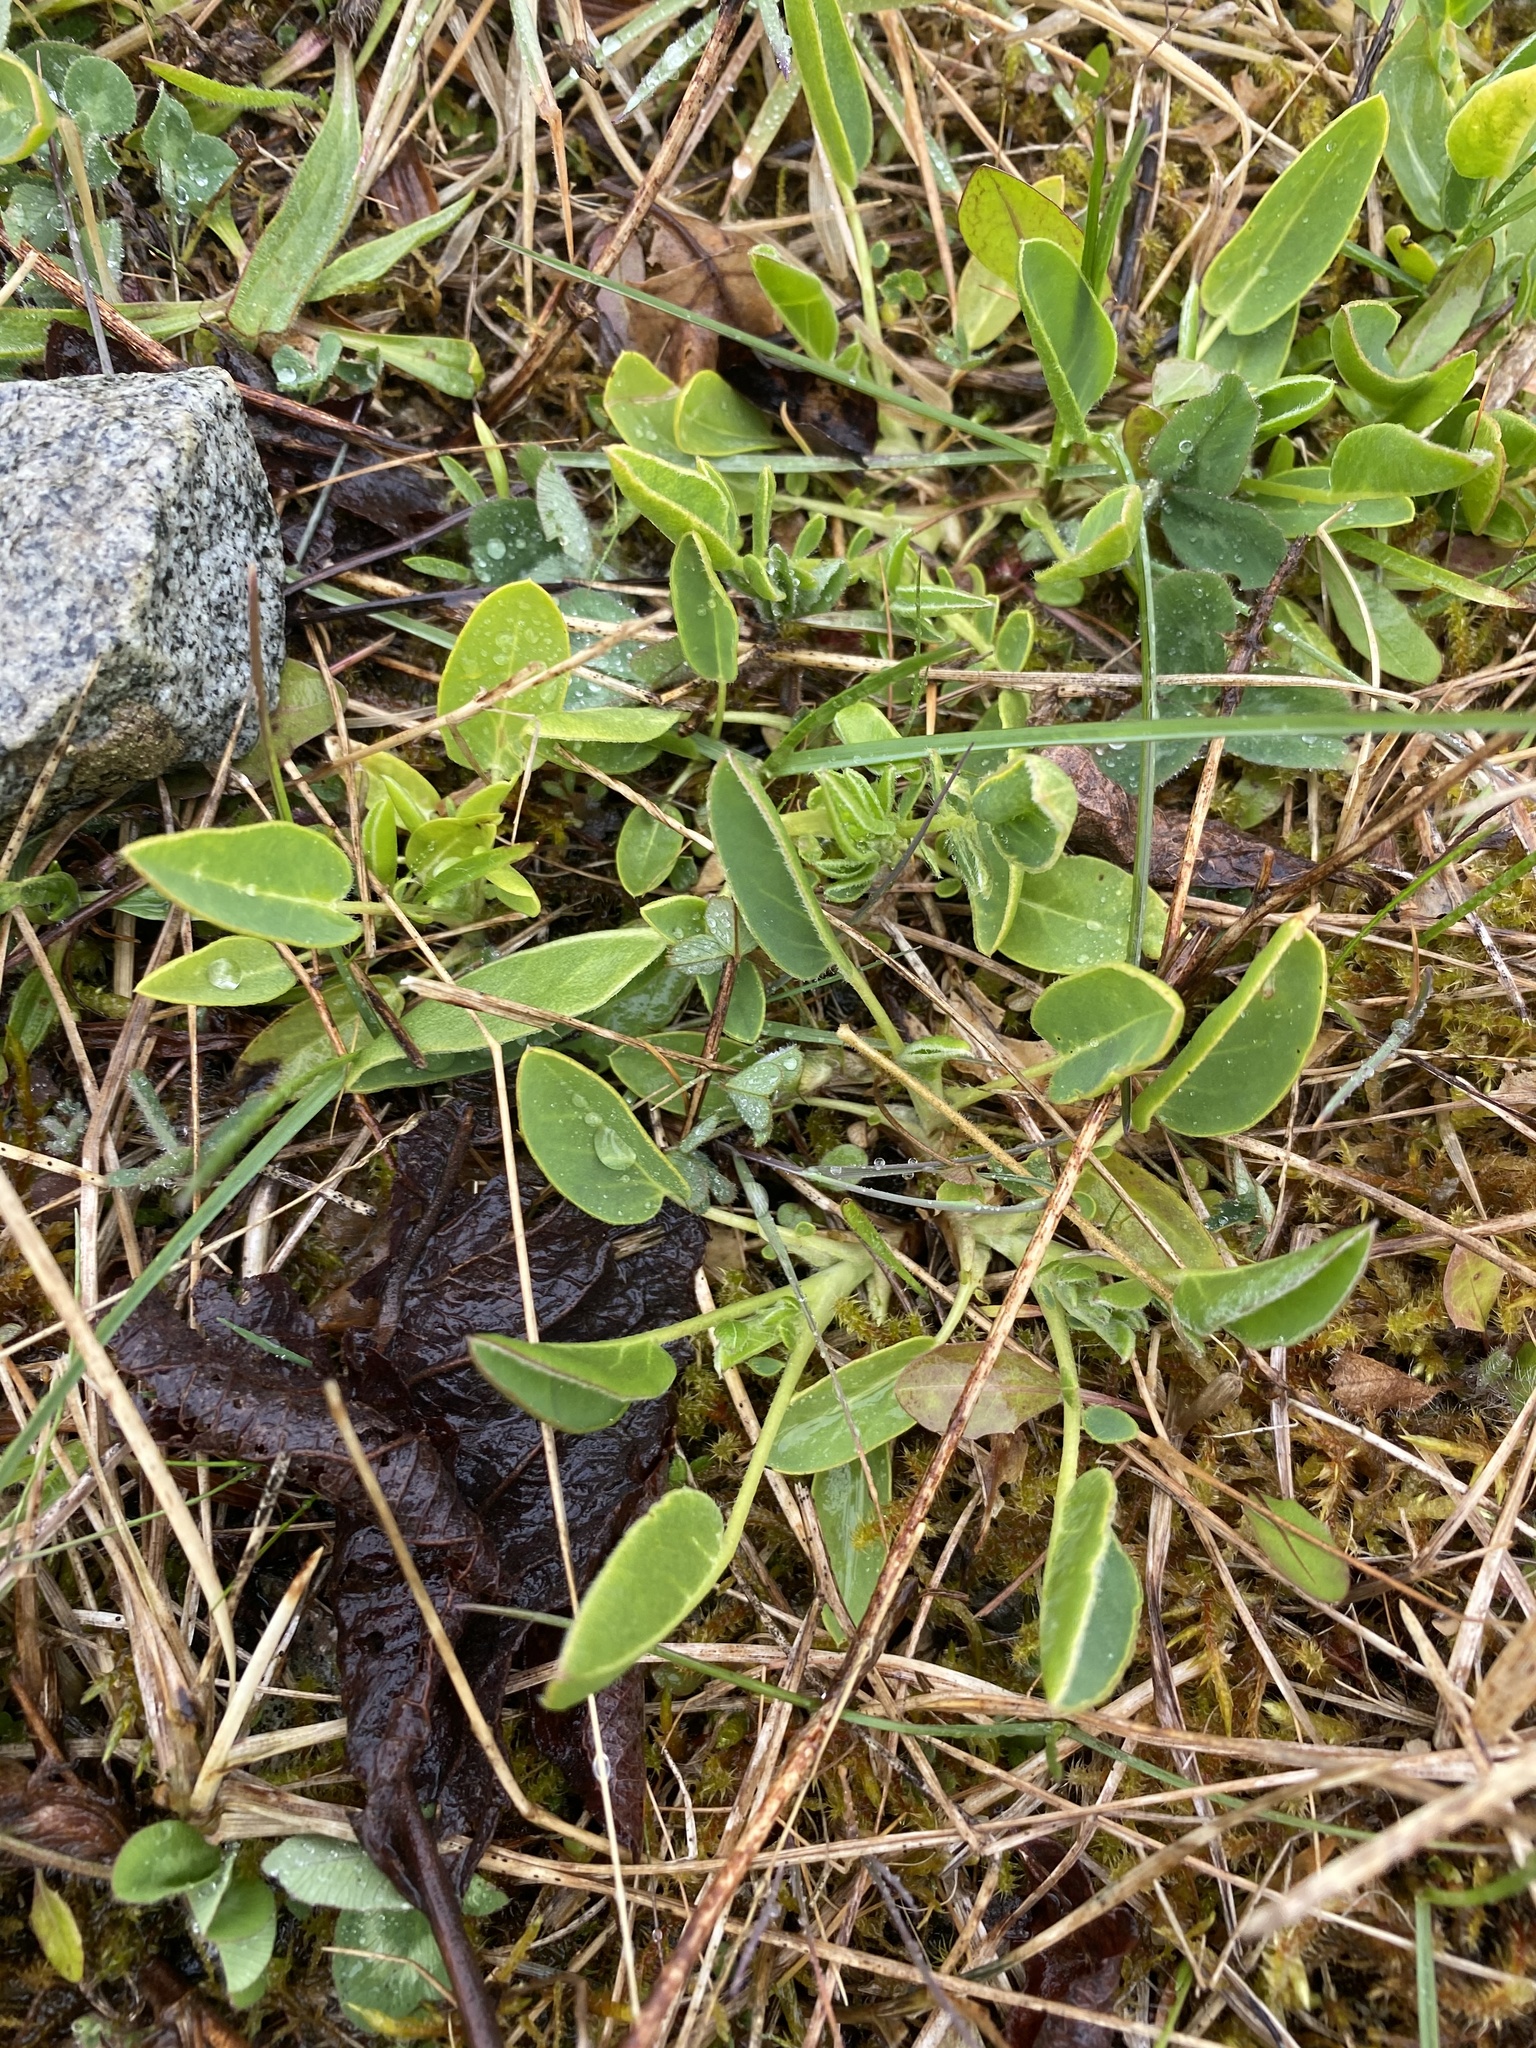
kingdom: Plantae
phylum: Tracheophyta
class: Magnoliopsida
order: Fabales
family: Fabaceae
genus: Anthyllis
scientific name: Anthyllis vulneraria
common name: Kidney vetch
